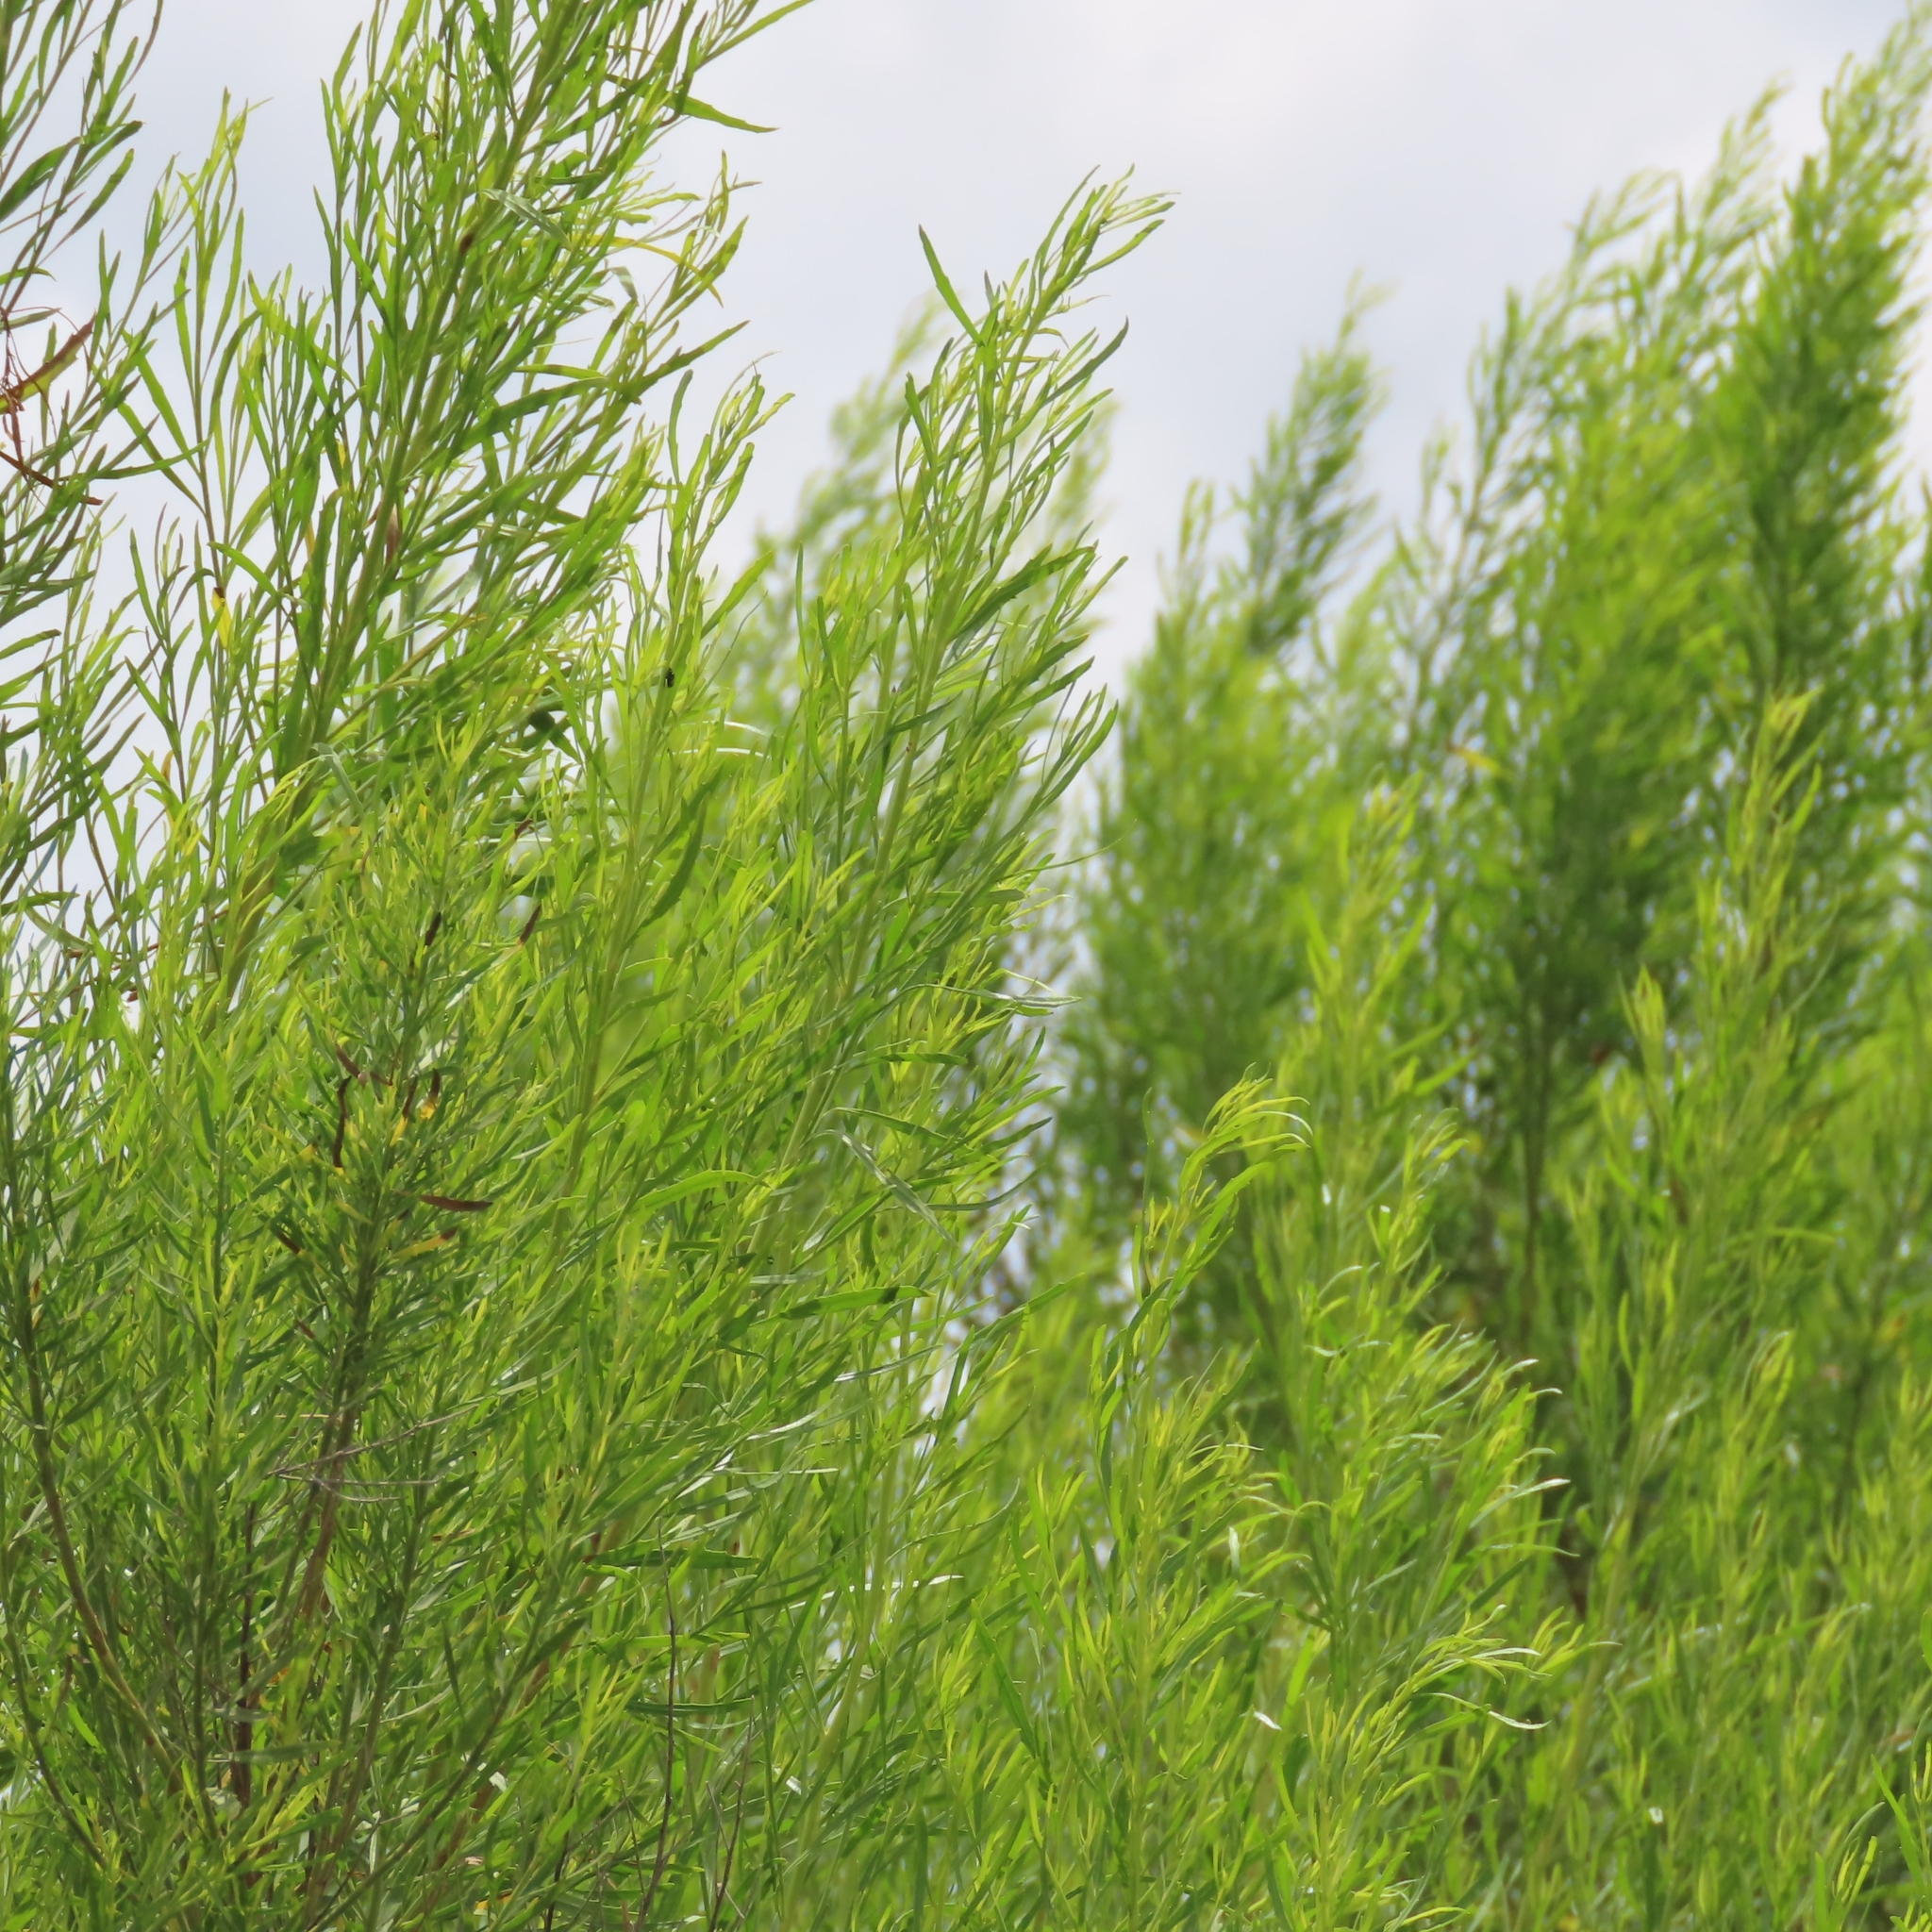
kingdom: Plantae
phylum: Tracheophyta
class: Magnoliopsida
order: Asterales
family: Asteraceae
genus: Baccharis
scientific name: Baccharis neglecta
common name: Roosevelt-weed
